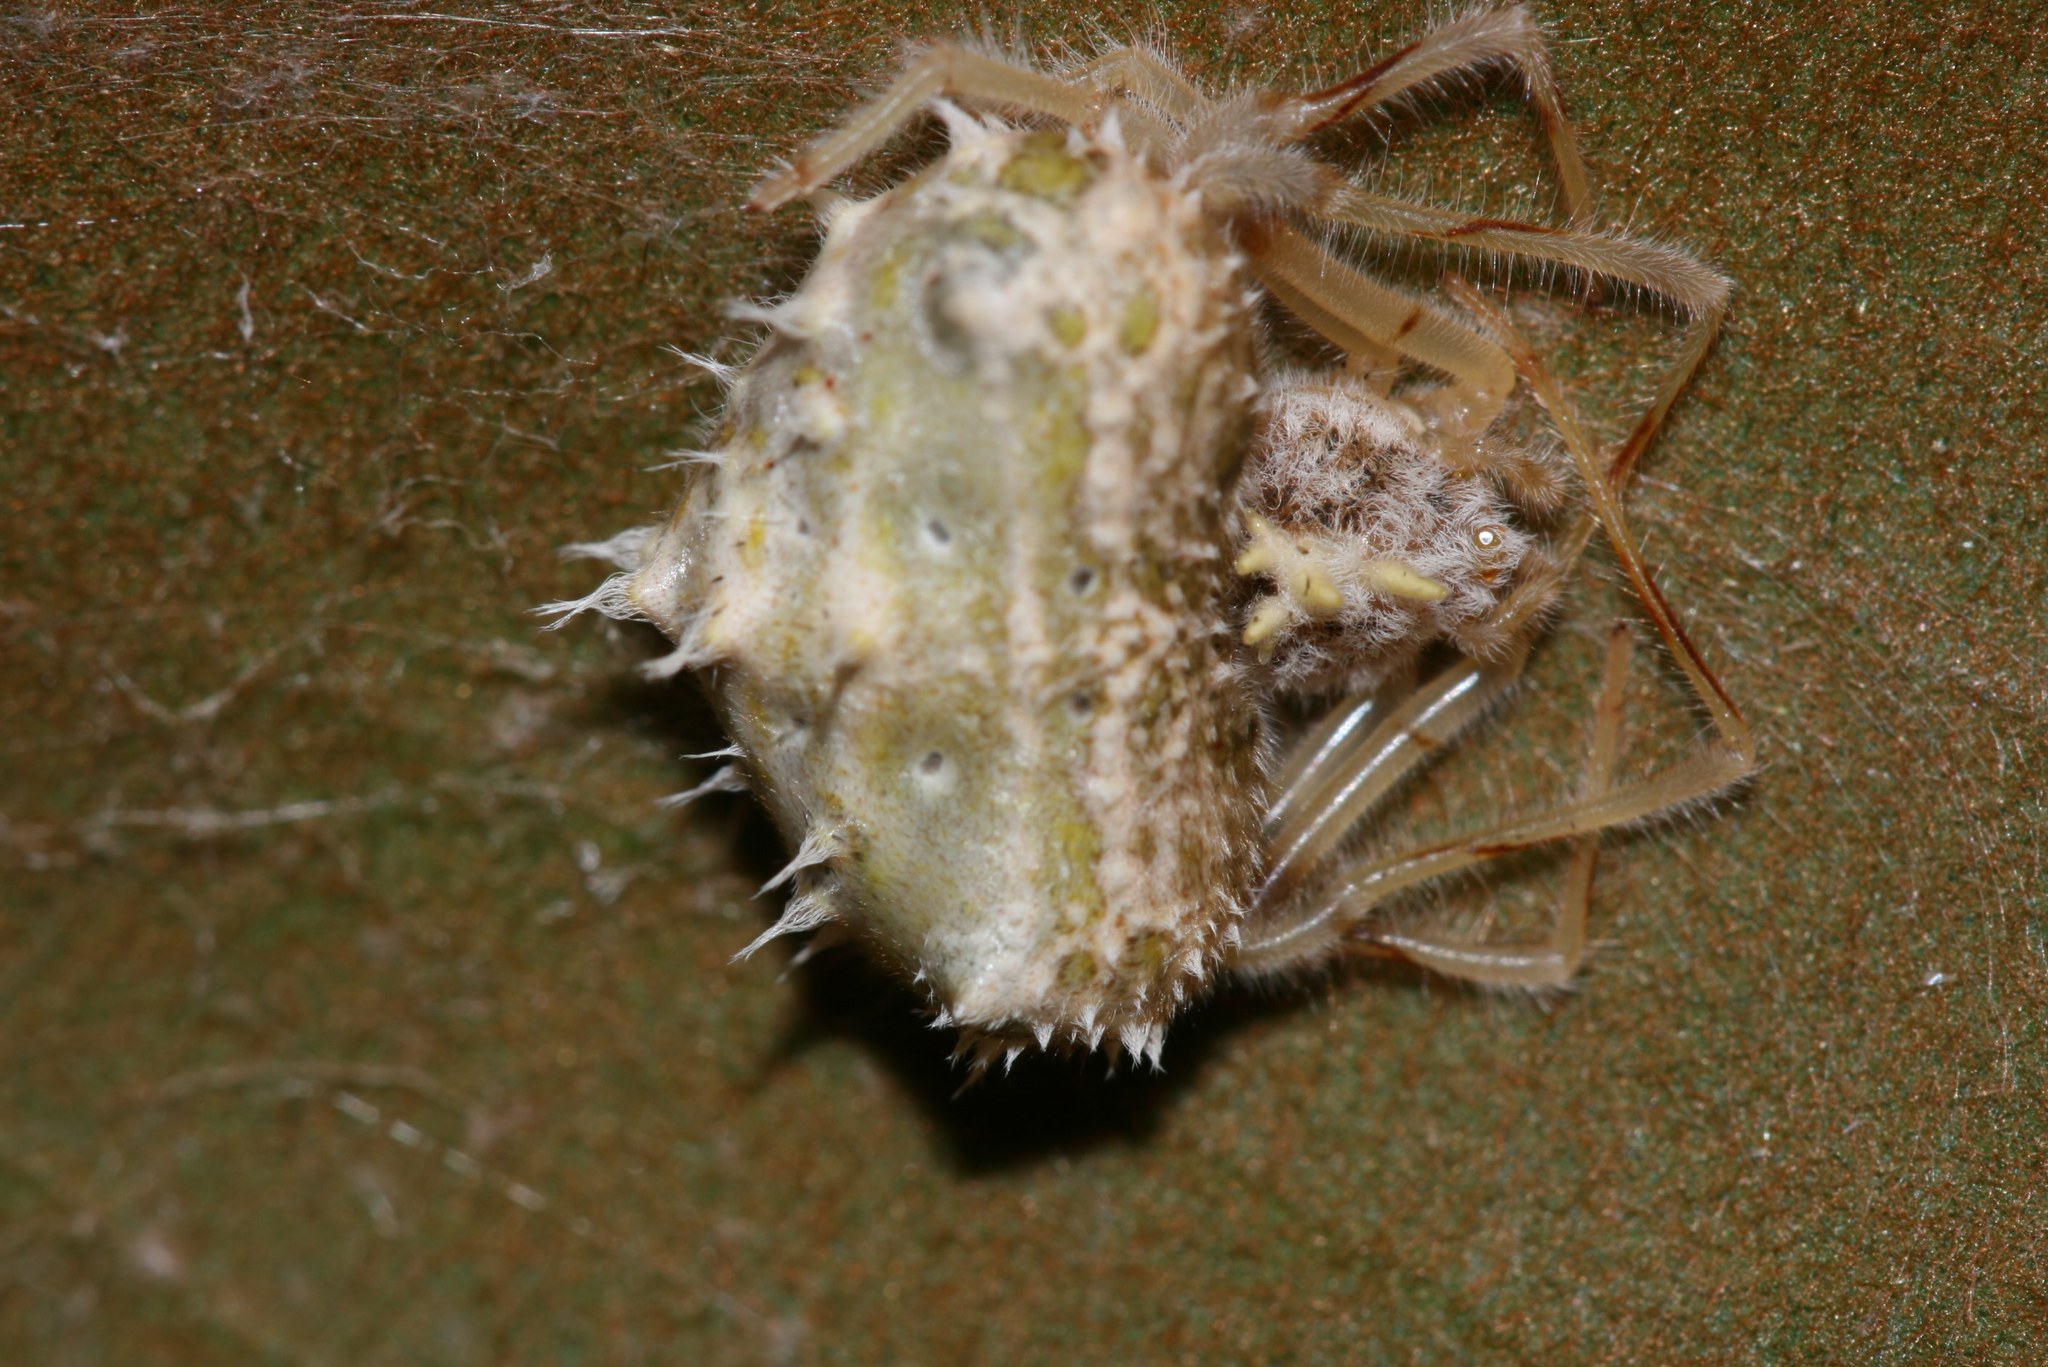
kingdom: Animalia
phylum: Arthropoda
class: Arachnida
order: Araneae
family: Araneidae
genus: Mastophora
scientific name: Mastophora alvareztoroi
